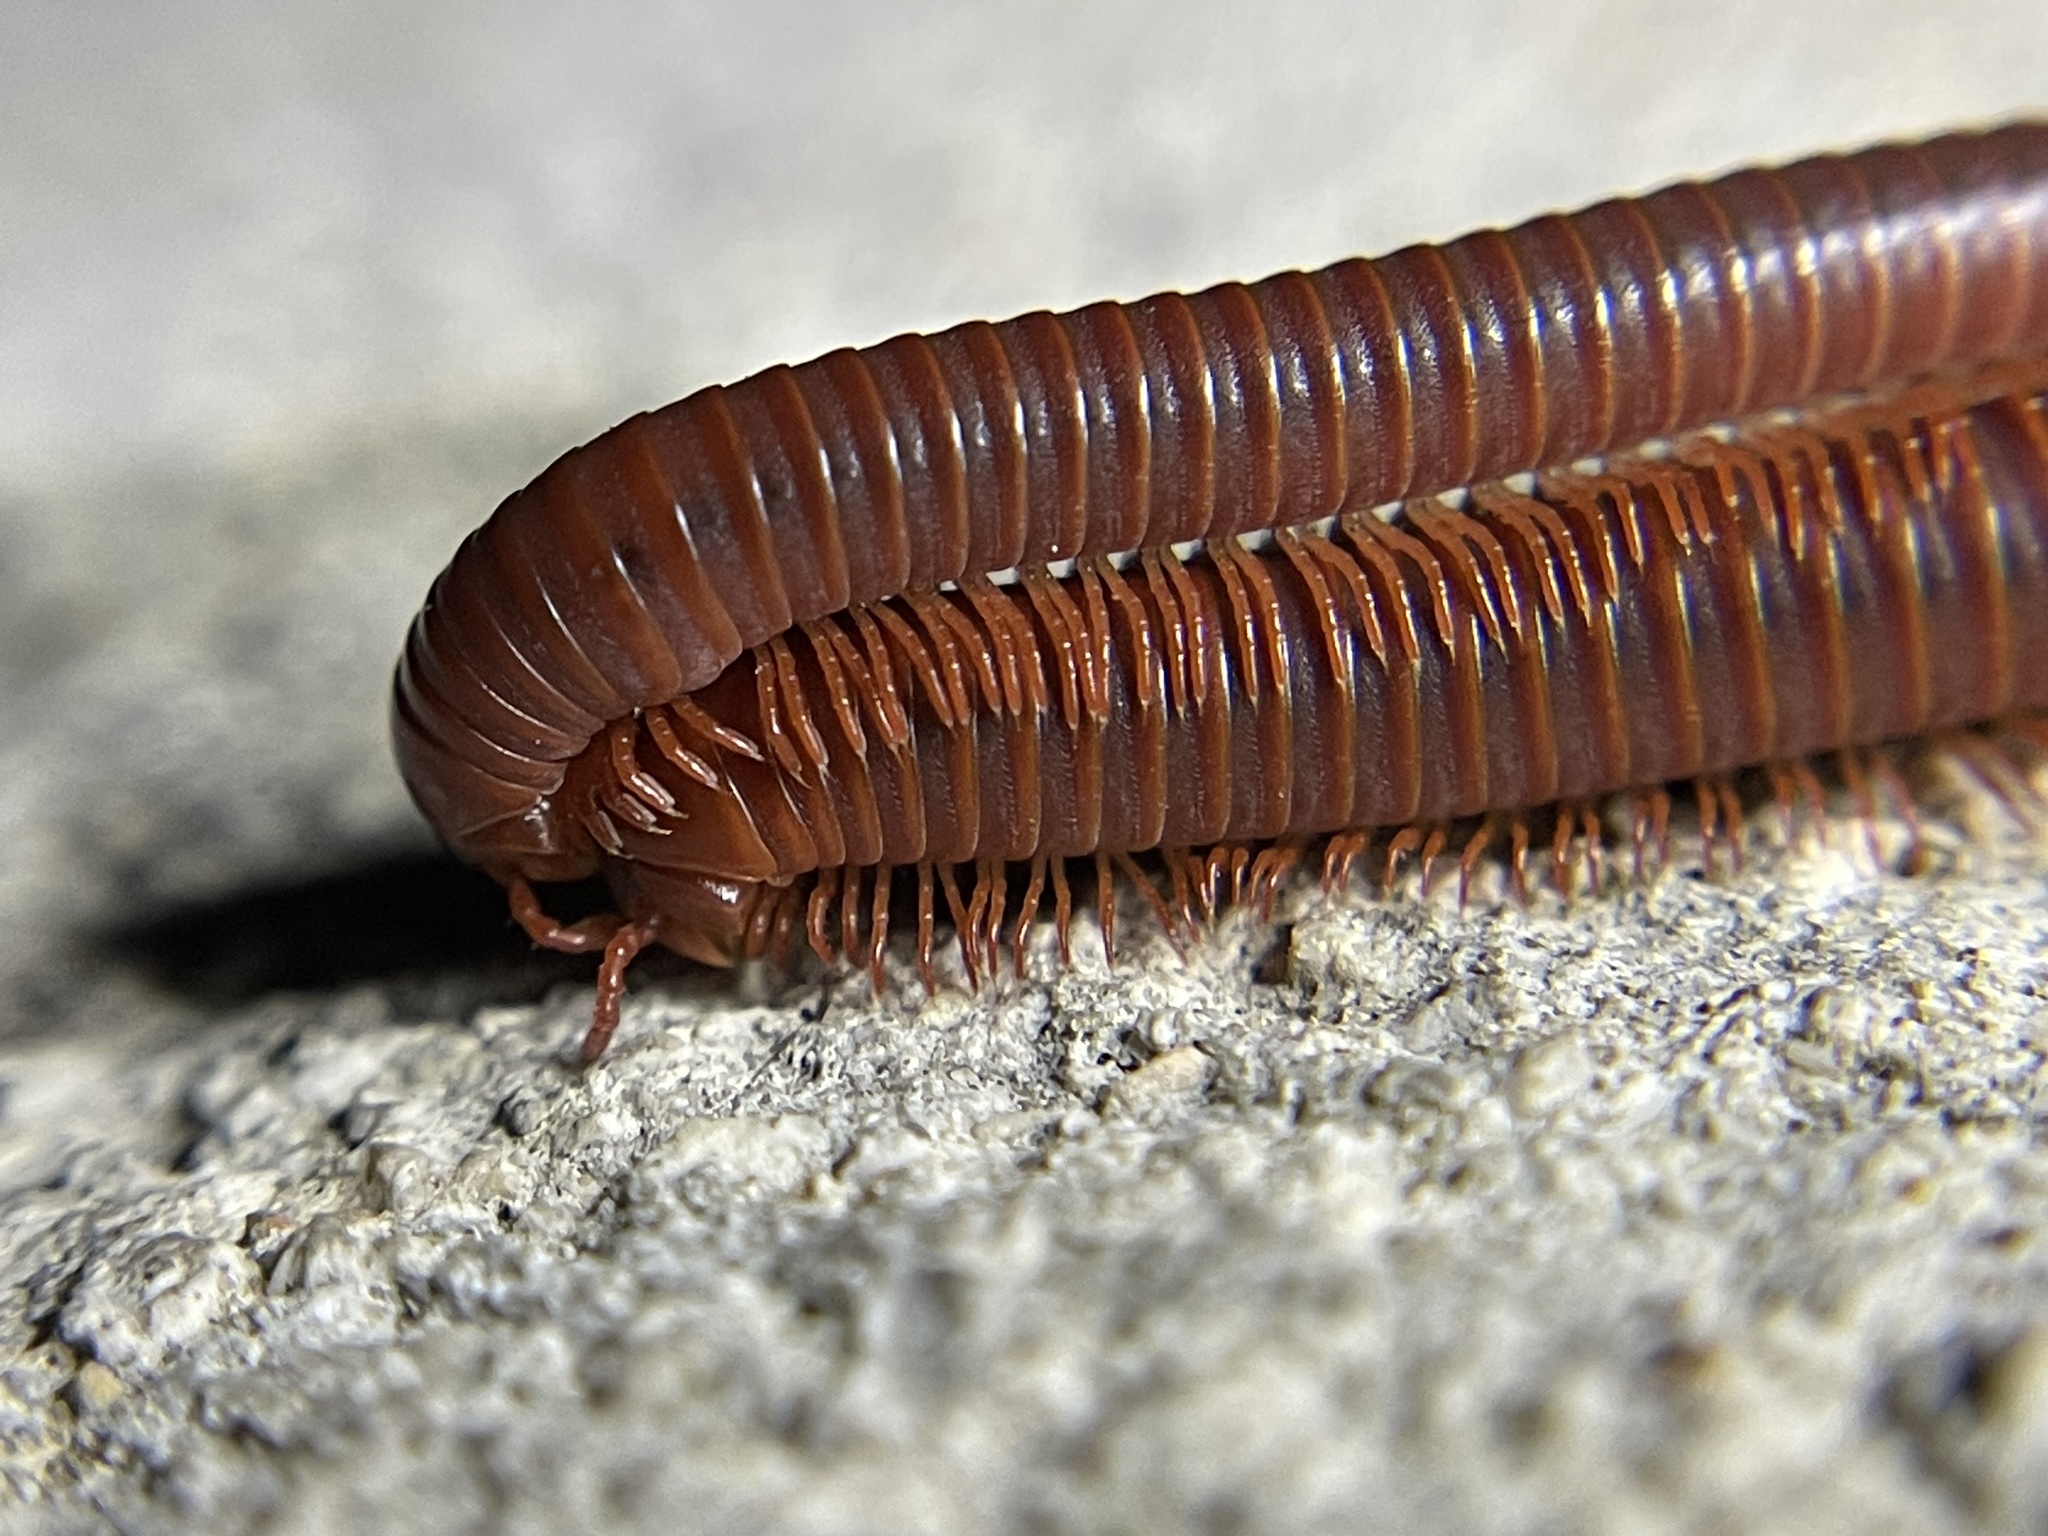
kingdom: Animalia
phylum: Arthropoda
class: Diplopoda
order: Spirobolida
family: Pachybolidae
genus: Trigoniulus
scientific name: Trigoniulus corallinus
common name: Millipede
